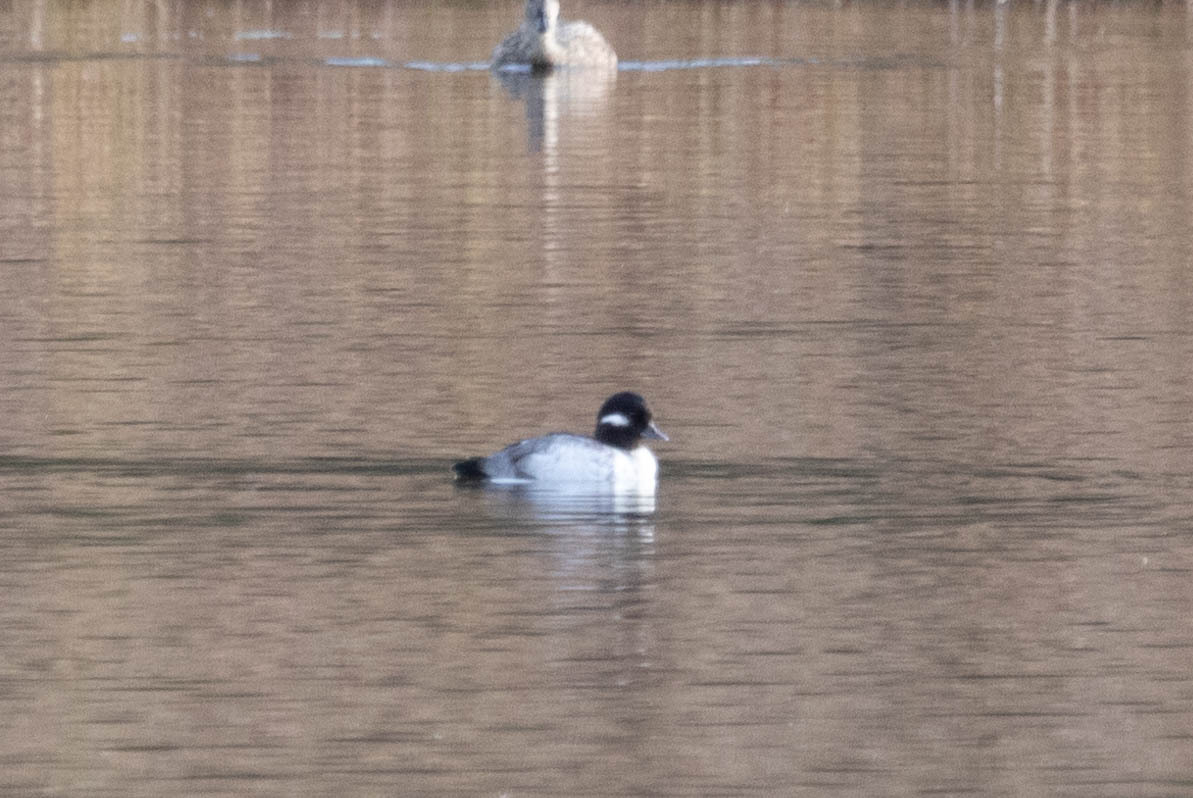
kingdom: Animalia
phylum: Chordata
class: Aves
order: Anseriformes
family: Anatidae
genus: Bucephala
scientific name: Bucephala albeola
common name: Bufflehead
